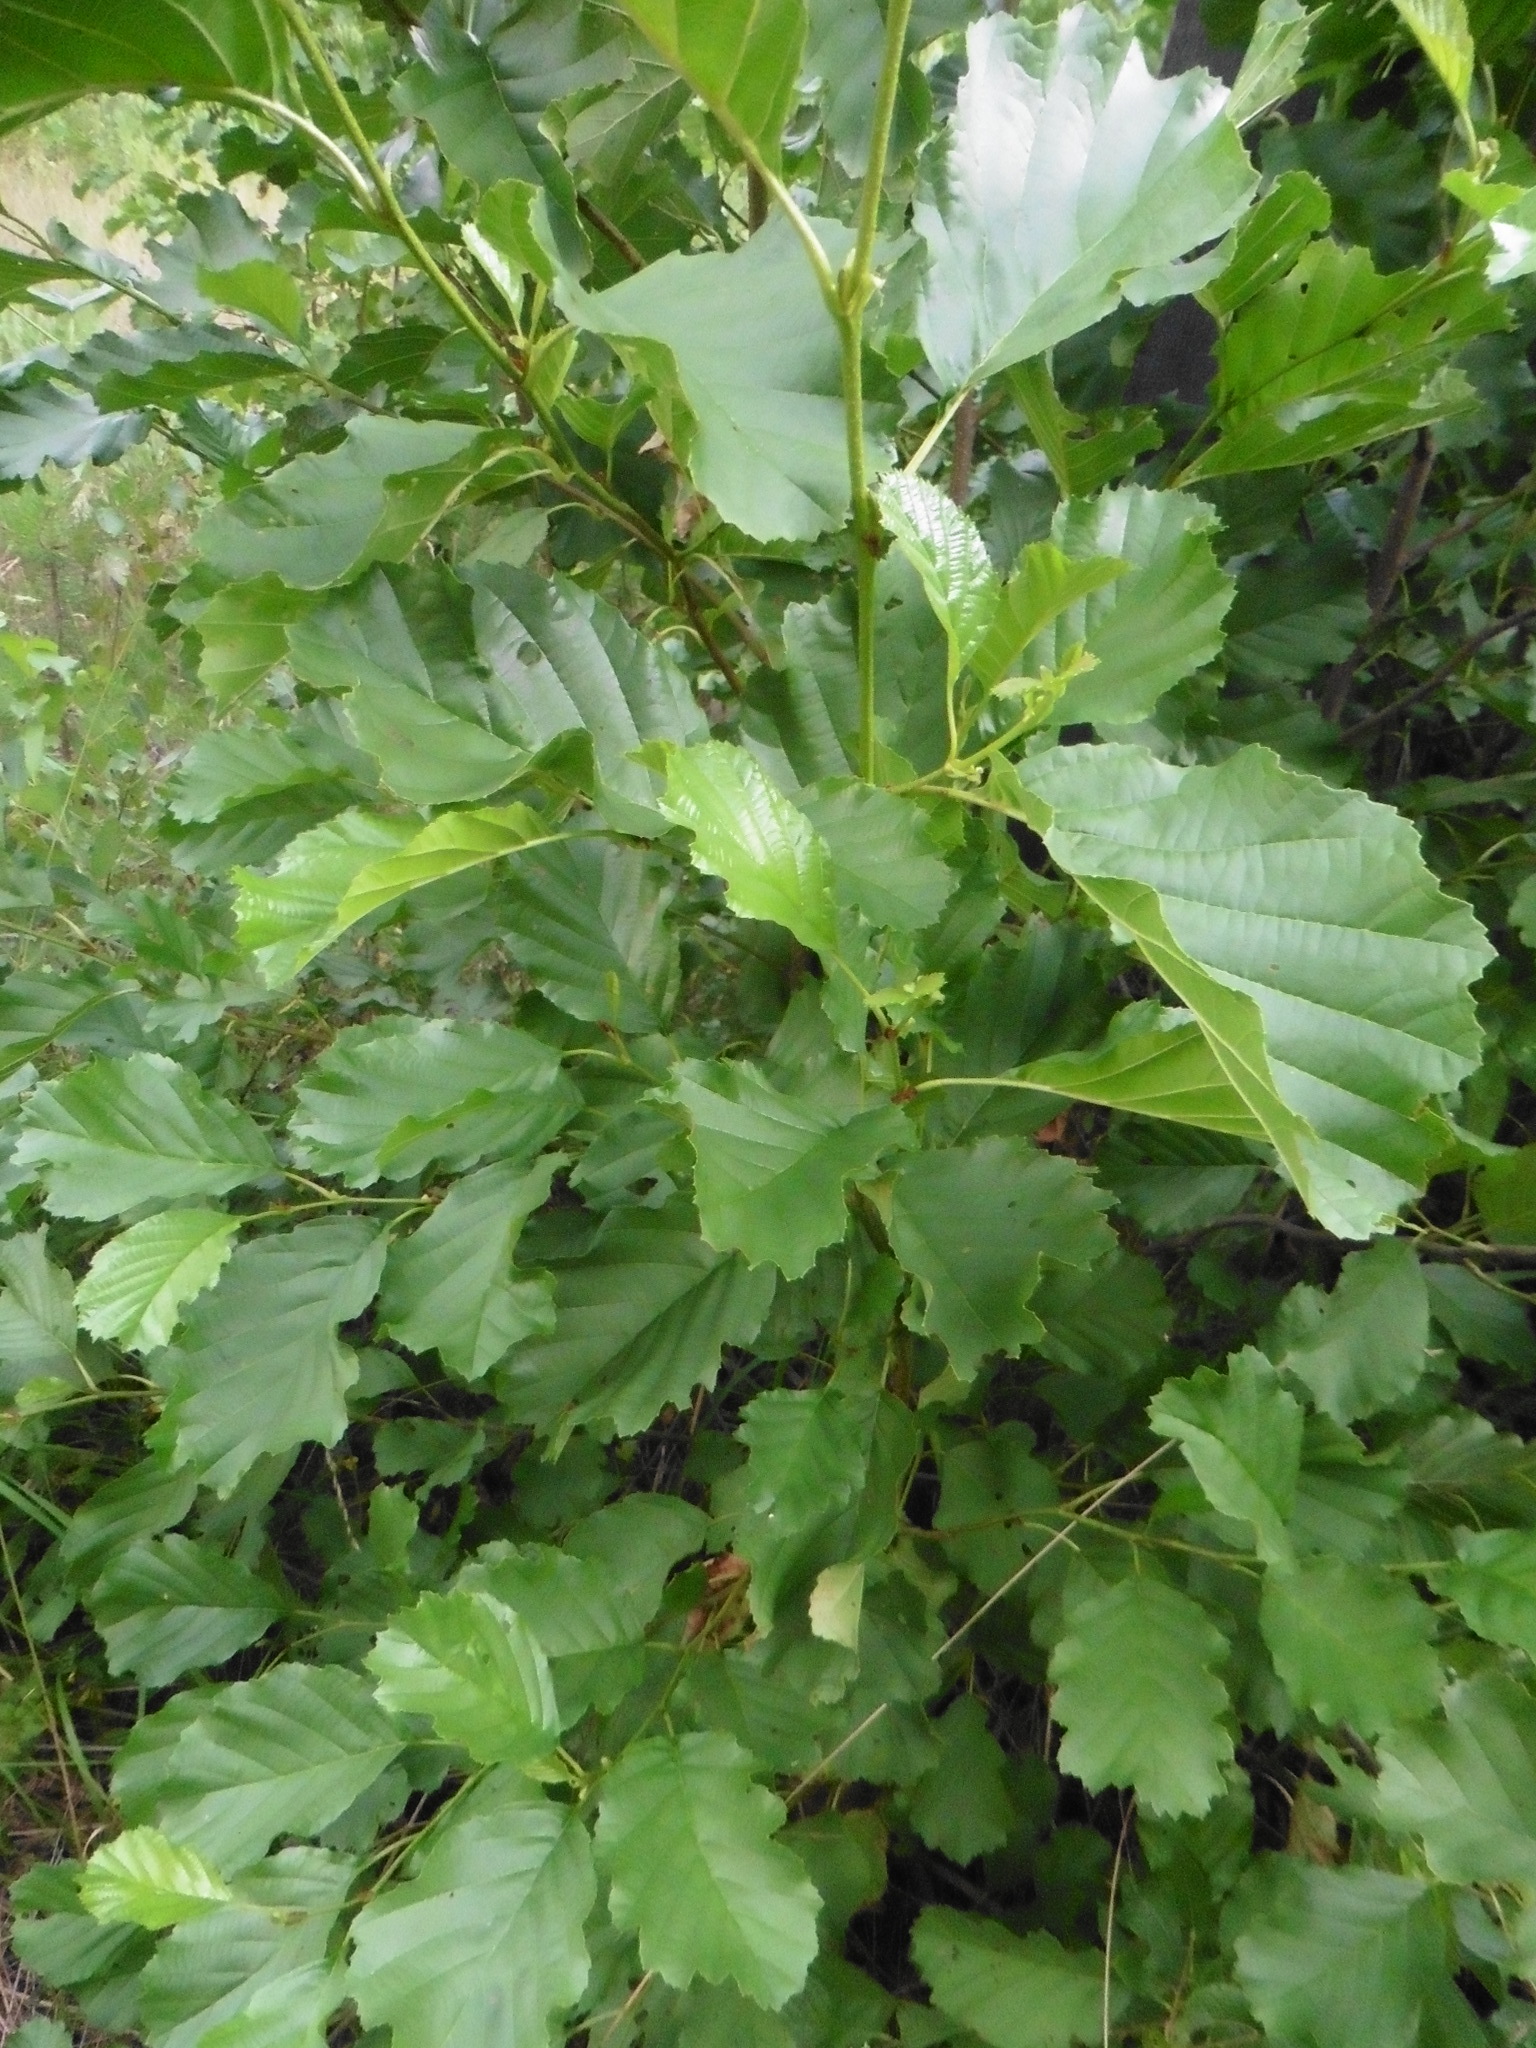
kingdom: Plantae
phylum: Tracheophyta
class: Magnoliopsida
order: Fagales
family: Betulaceae
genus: Alnus
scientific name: Alnus glutinosa
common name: Black alder
